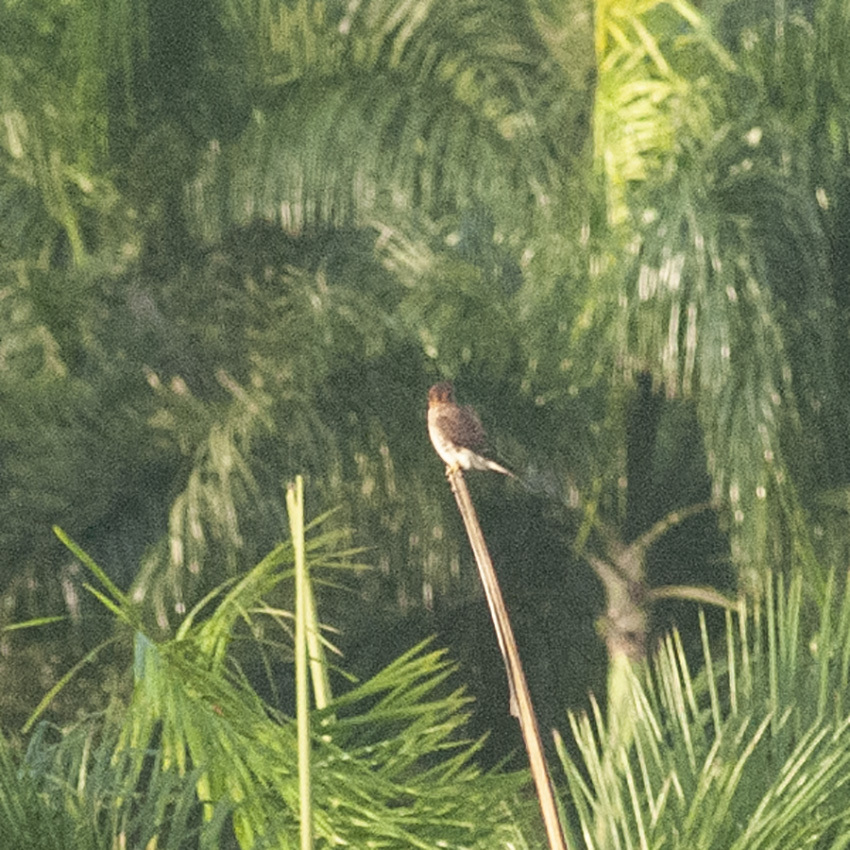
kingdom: Animalia
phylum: Chordata
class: Aves
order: Falconiformes
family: Falconidae
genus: Falco
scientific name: Falco sparverius
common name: American kestrel
